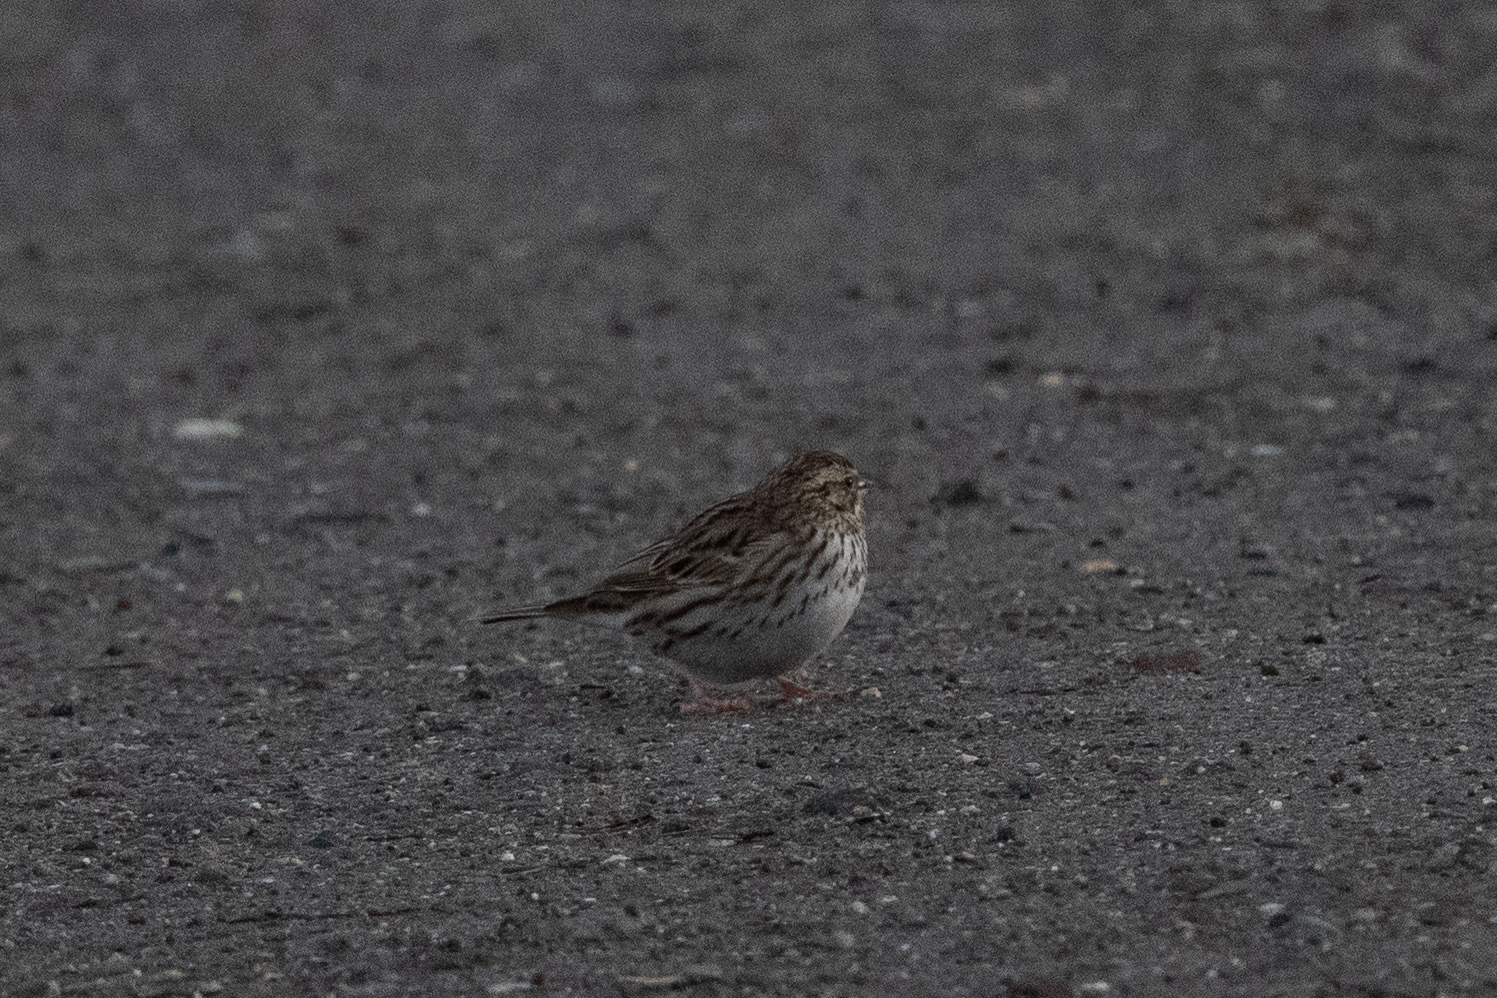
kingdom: Animalia
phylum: Chordata
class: Aves
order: Passeriformes
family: Passerellidae
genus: Passerculus
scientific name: Passerculus sandwichensis
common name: Savannah sparrow
